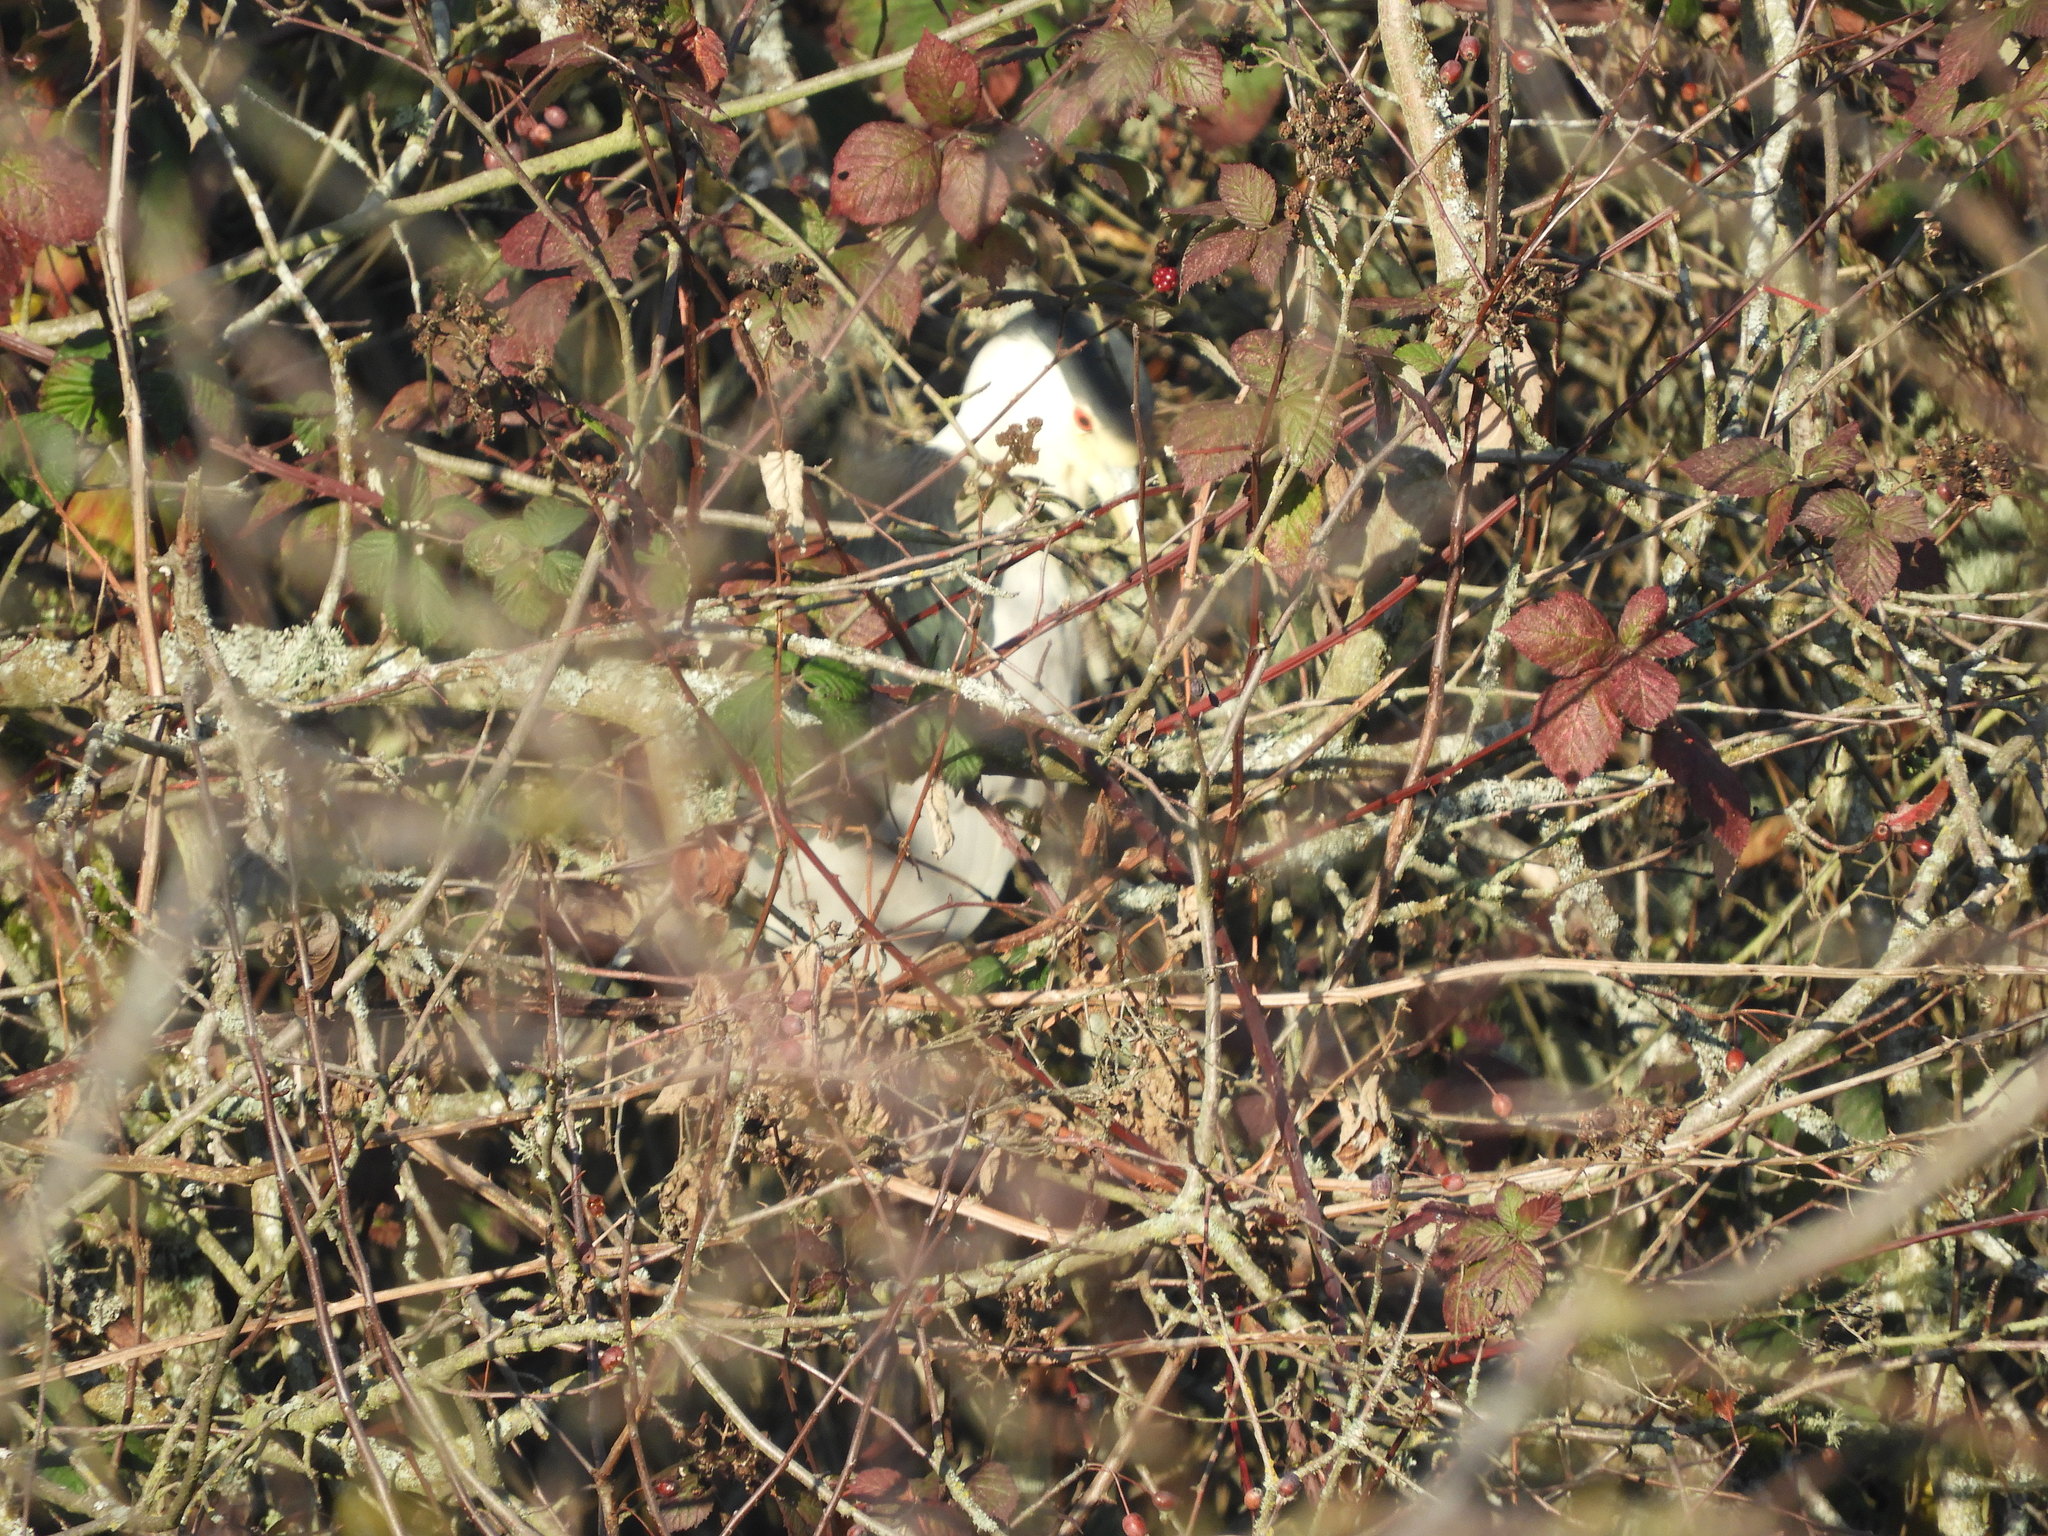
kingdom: Animalia
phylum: Chordata
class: Aves
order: Pelecaniformes
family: Ardeidae
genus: Nycticorax
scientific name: Nycticorax nycticorax
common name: Black-crowned night heron
